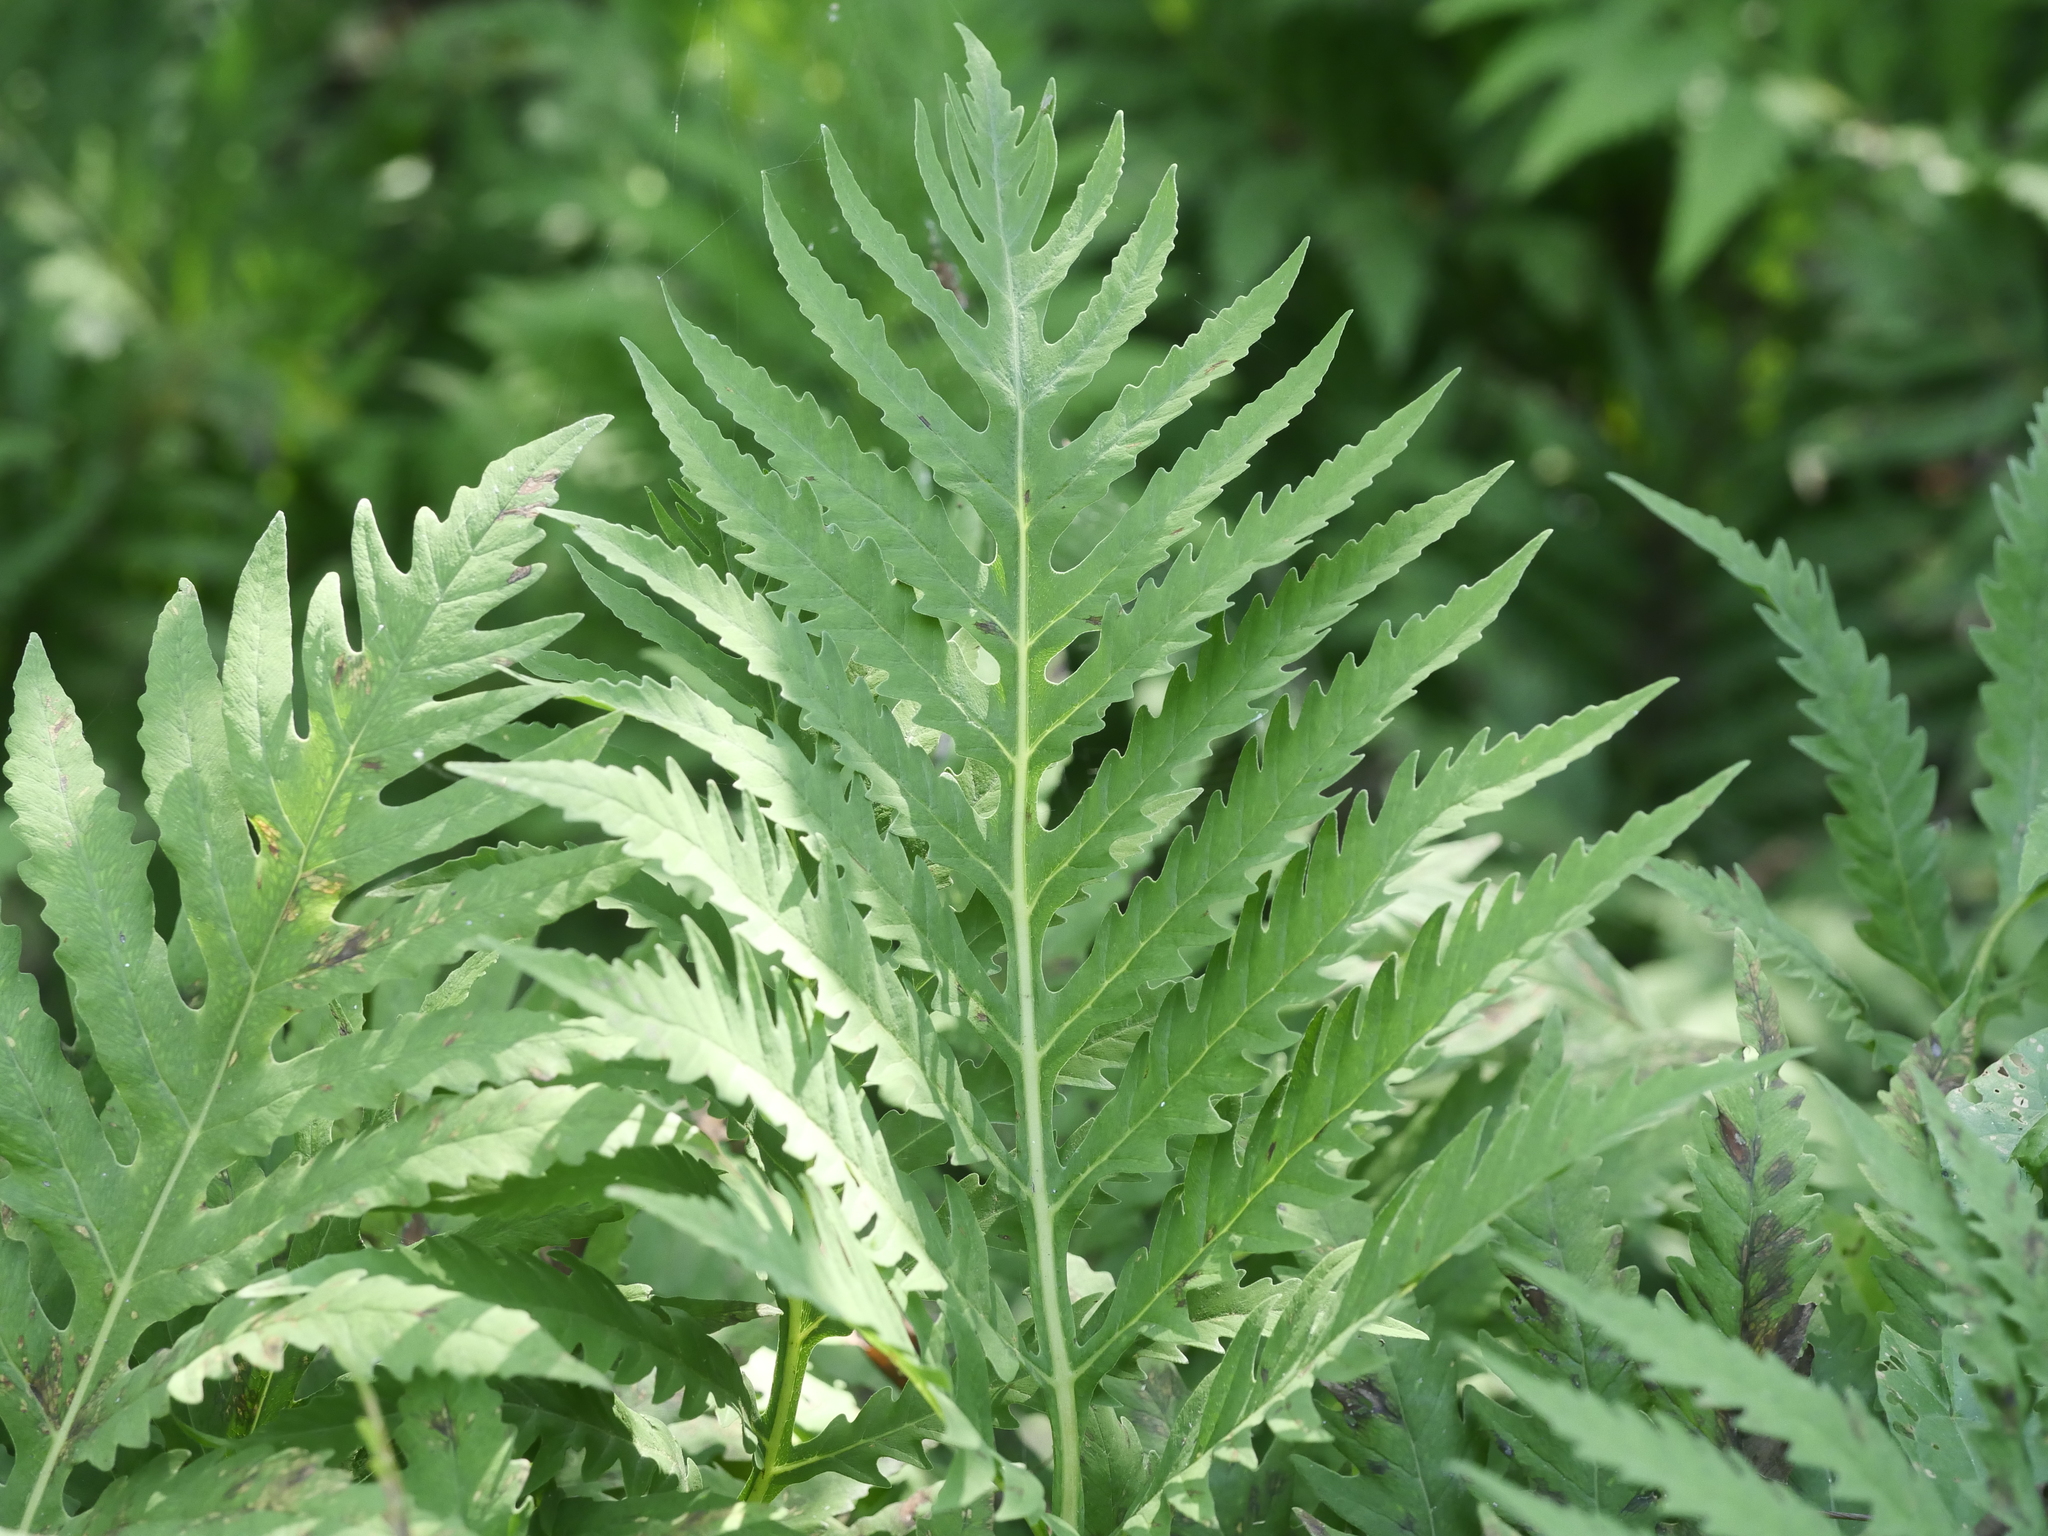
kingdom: Plantae
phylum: Tracheophyta
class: Polypodiopsida
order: Polypodiales
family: Onocleaceae
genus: Onoclea
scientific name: Onoclea sensibilis
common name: Sensitive fern
